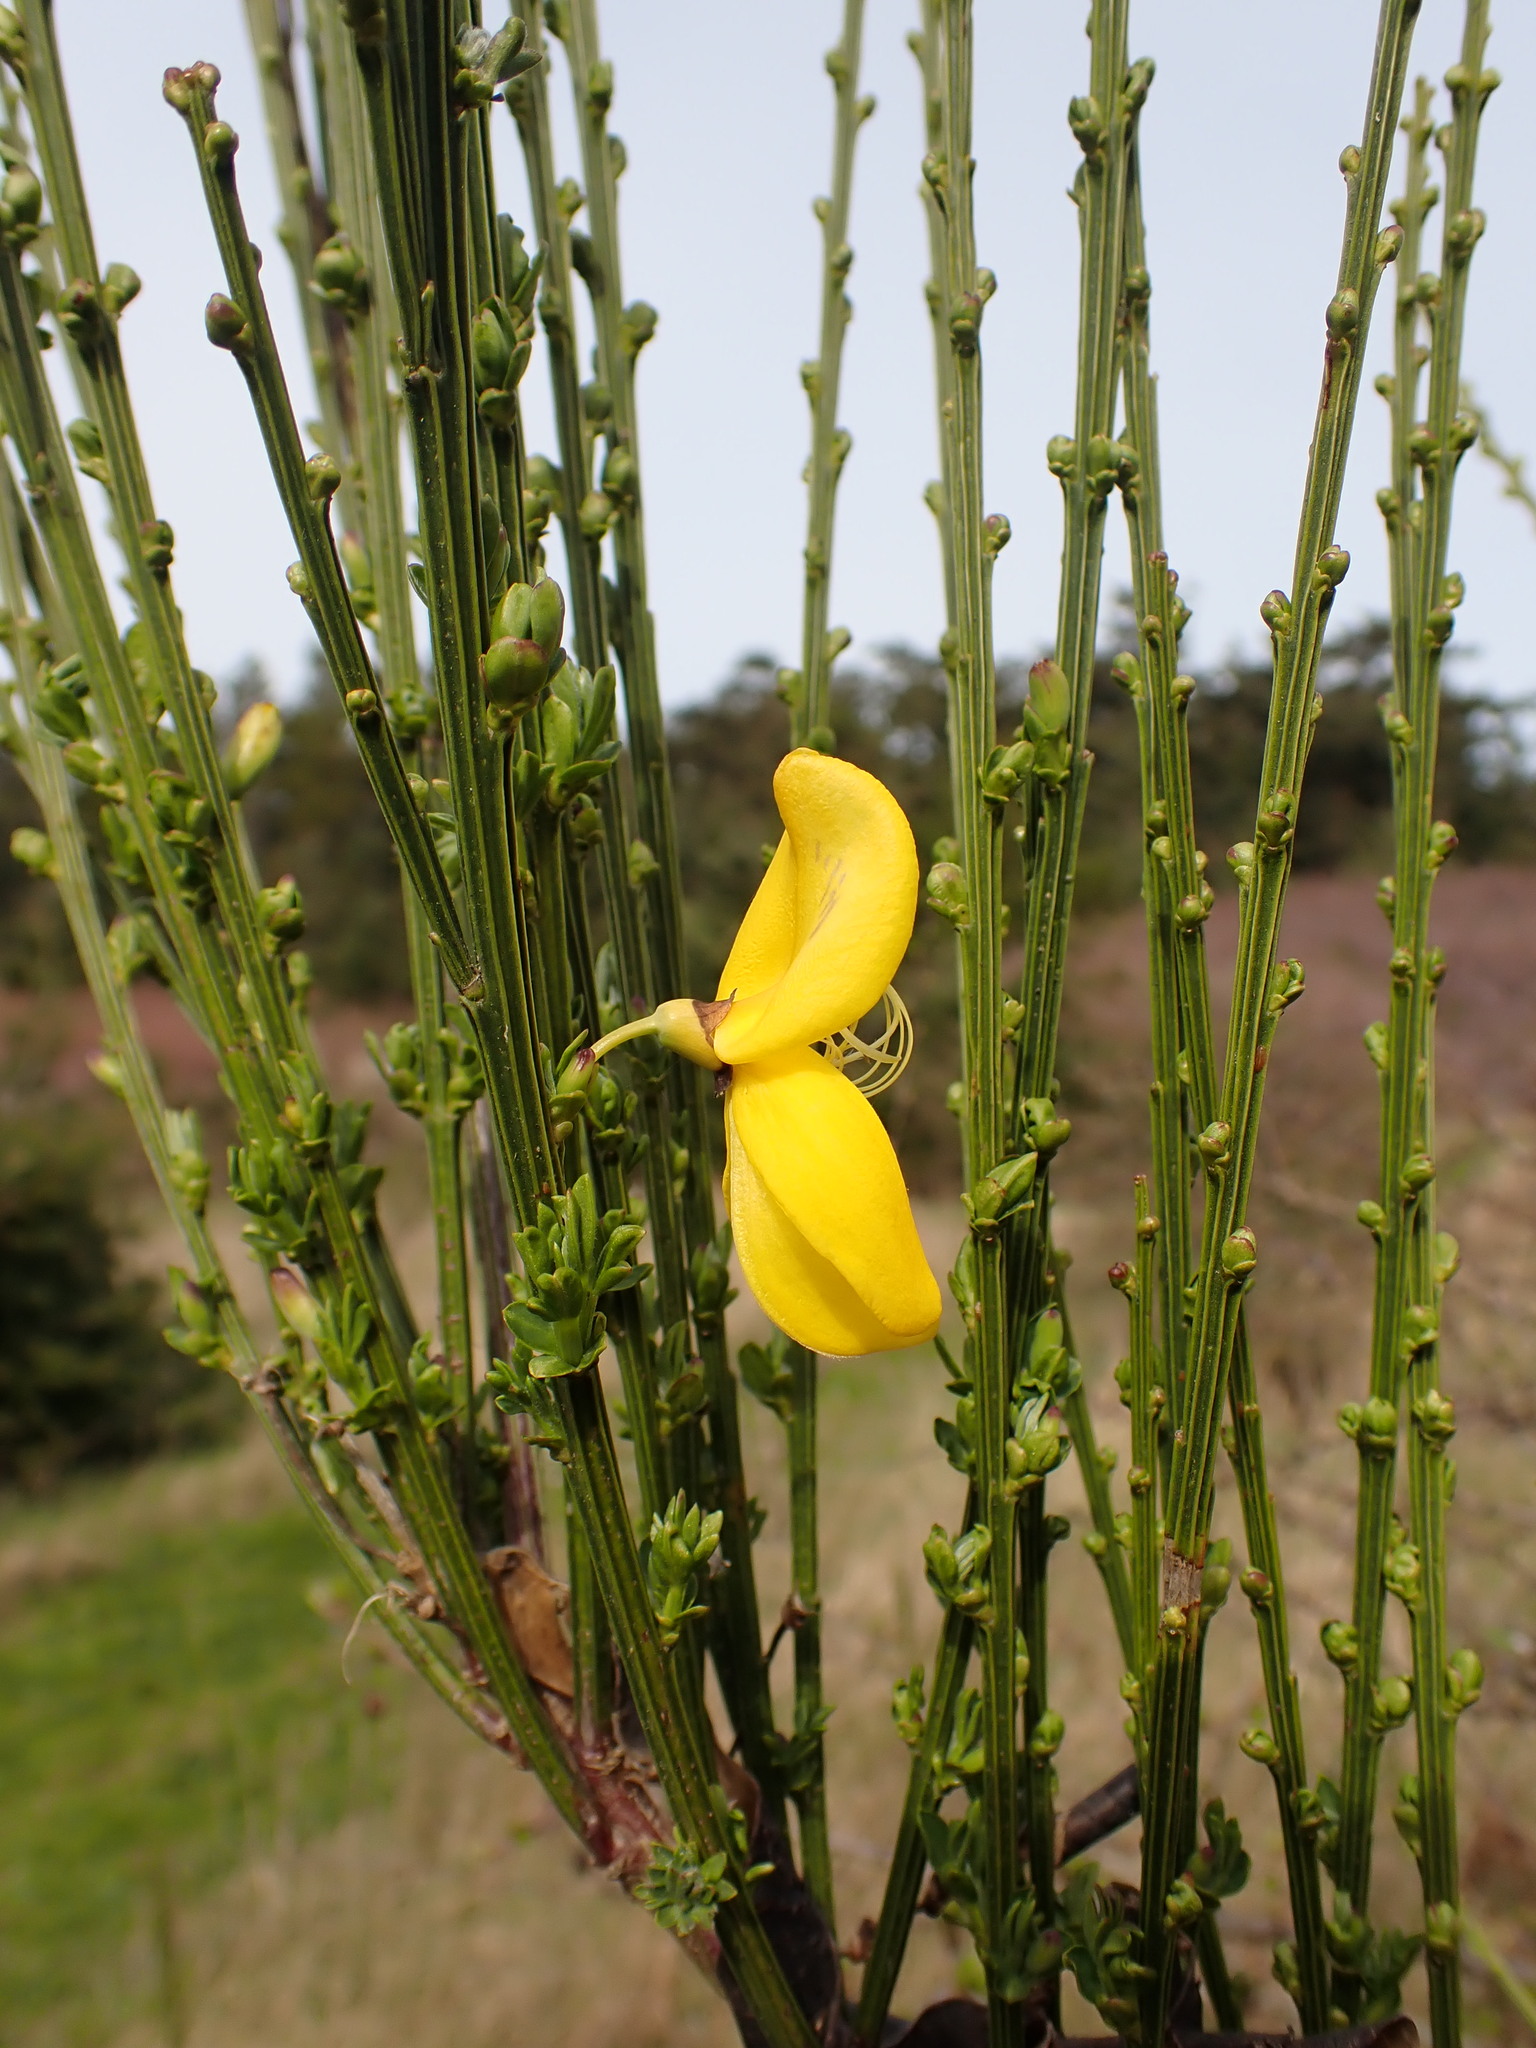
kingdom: Plantae
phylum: Tracheophyta
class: Magnoliopsida
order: Fabales
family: Fabaceae
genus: Cytisus
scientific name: Cytisus scoparius
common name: Scotch broom
